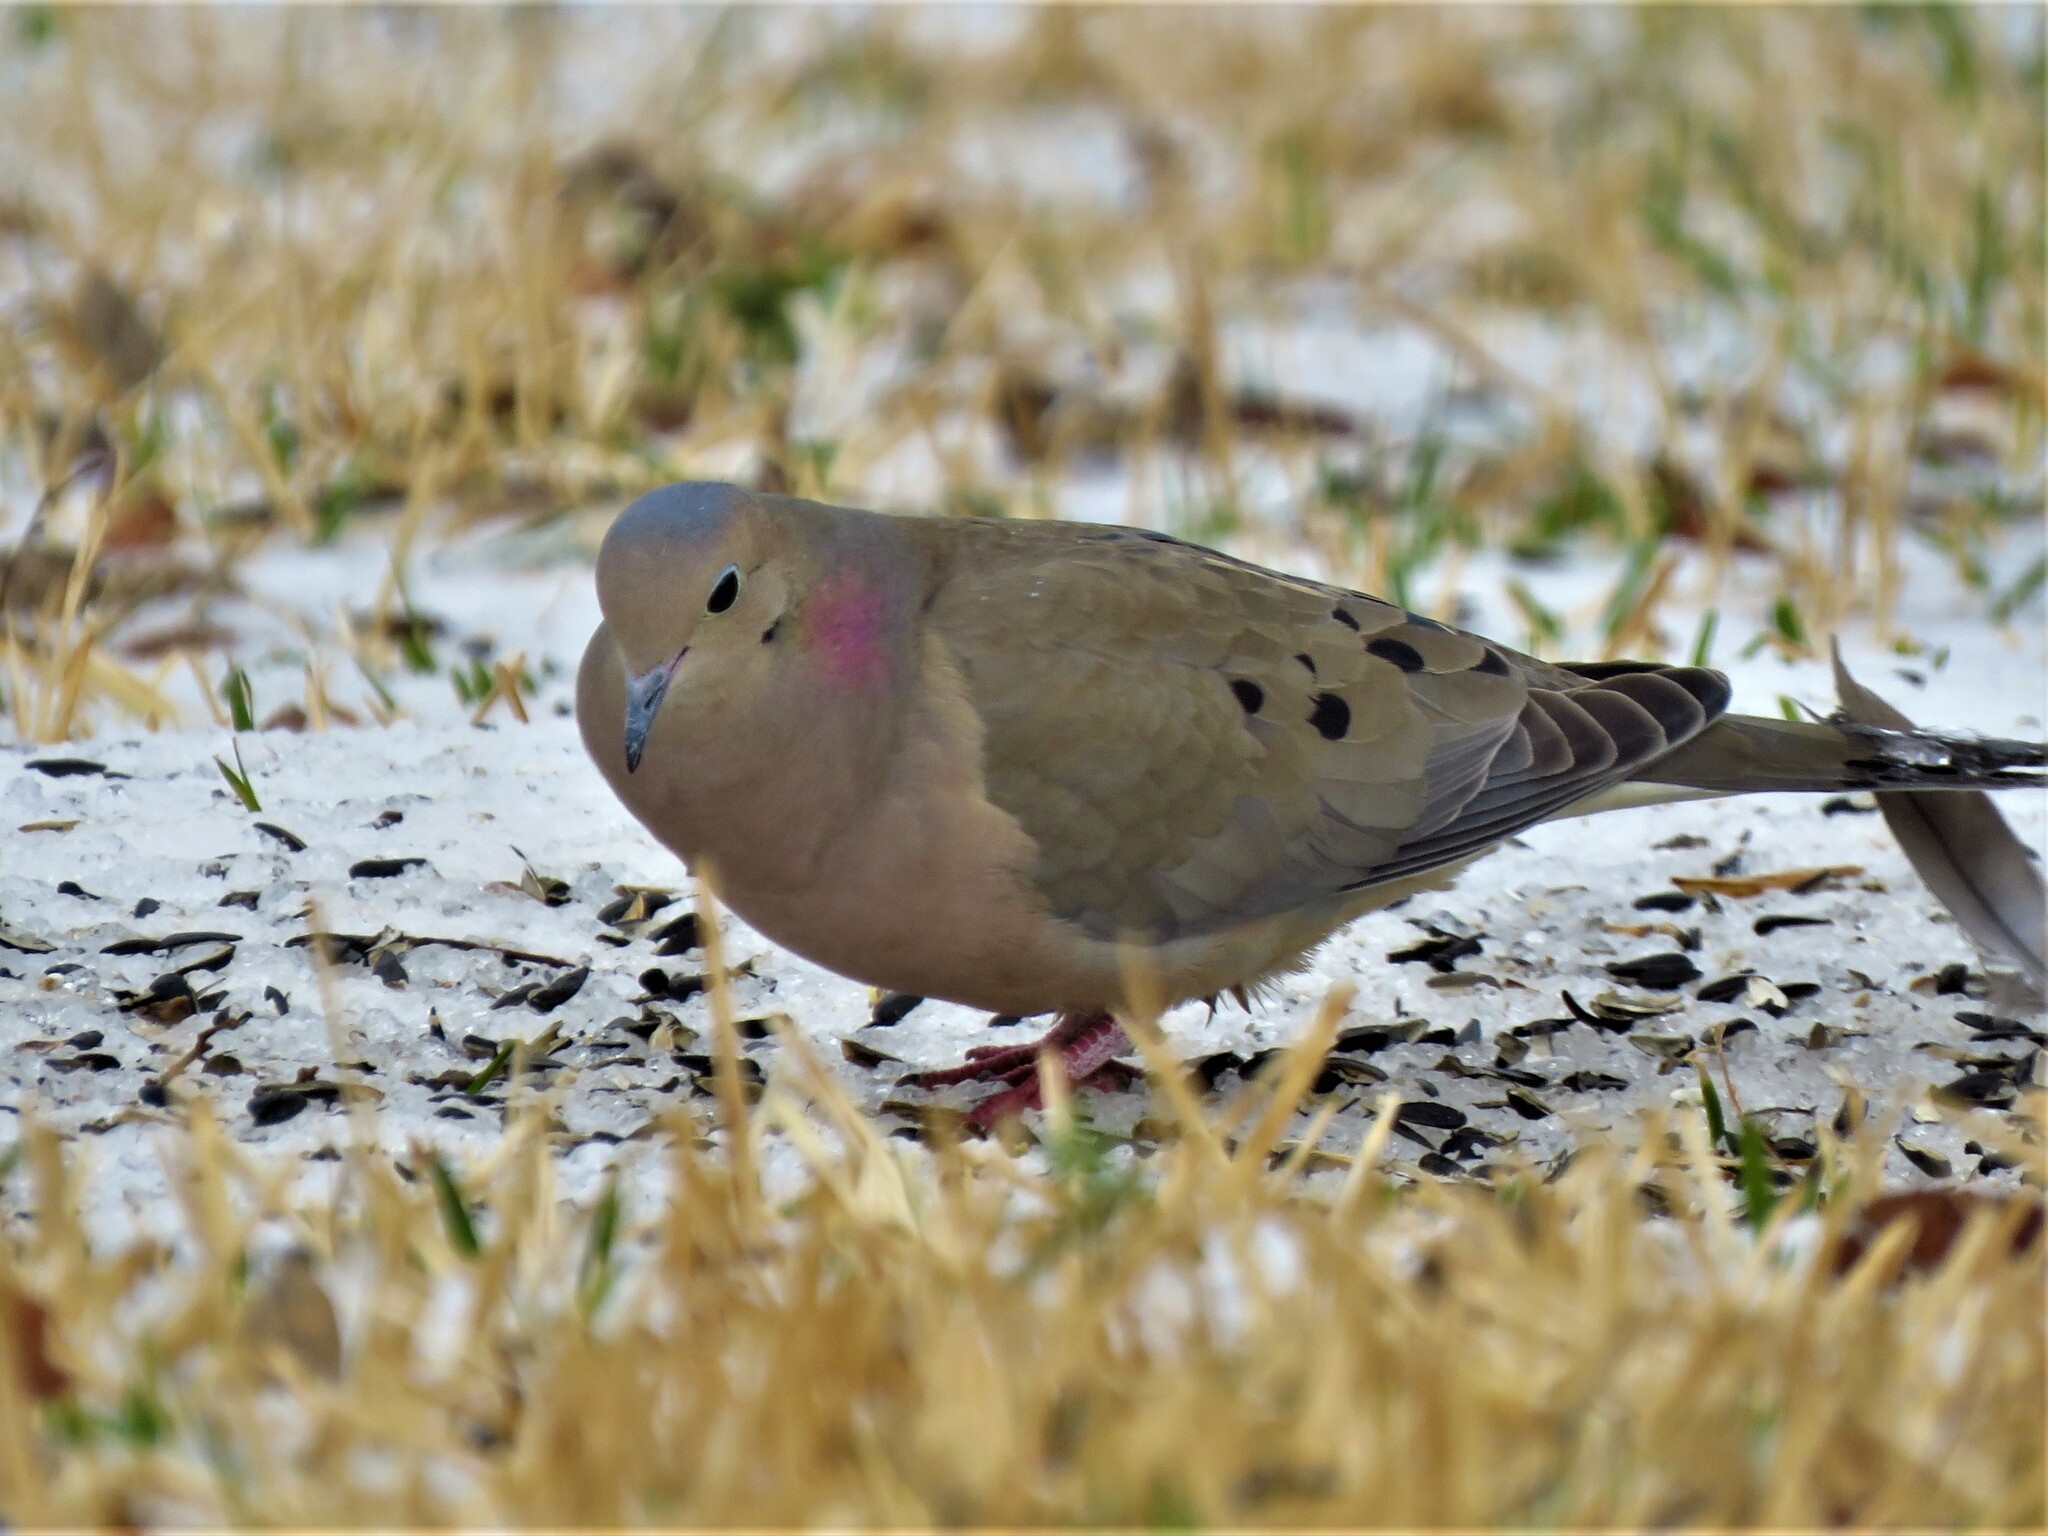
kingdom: Animalia
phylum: Chordata
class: Aves
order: Columbiformes
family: Columbidae
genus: Zenaida
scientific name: Zenaida macroura
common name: Mourning dove
